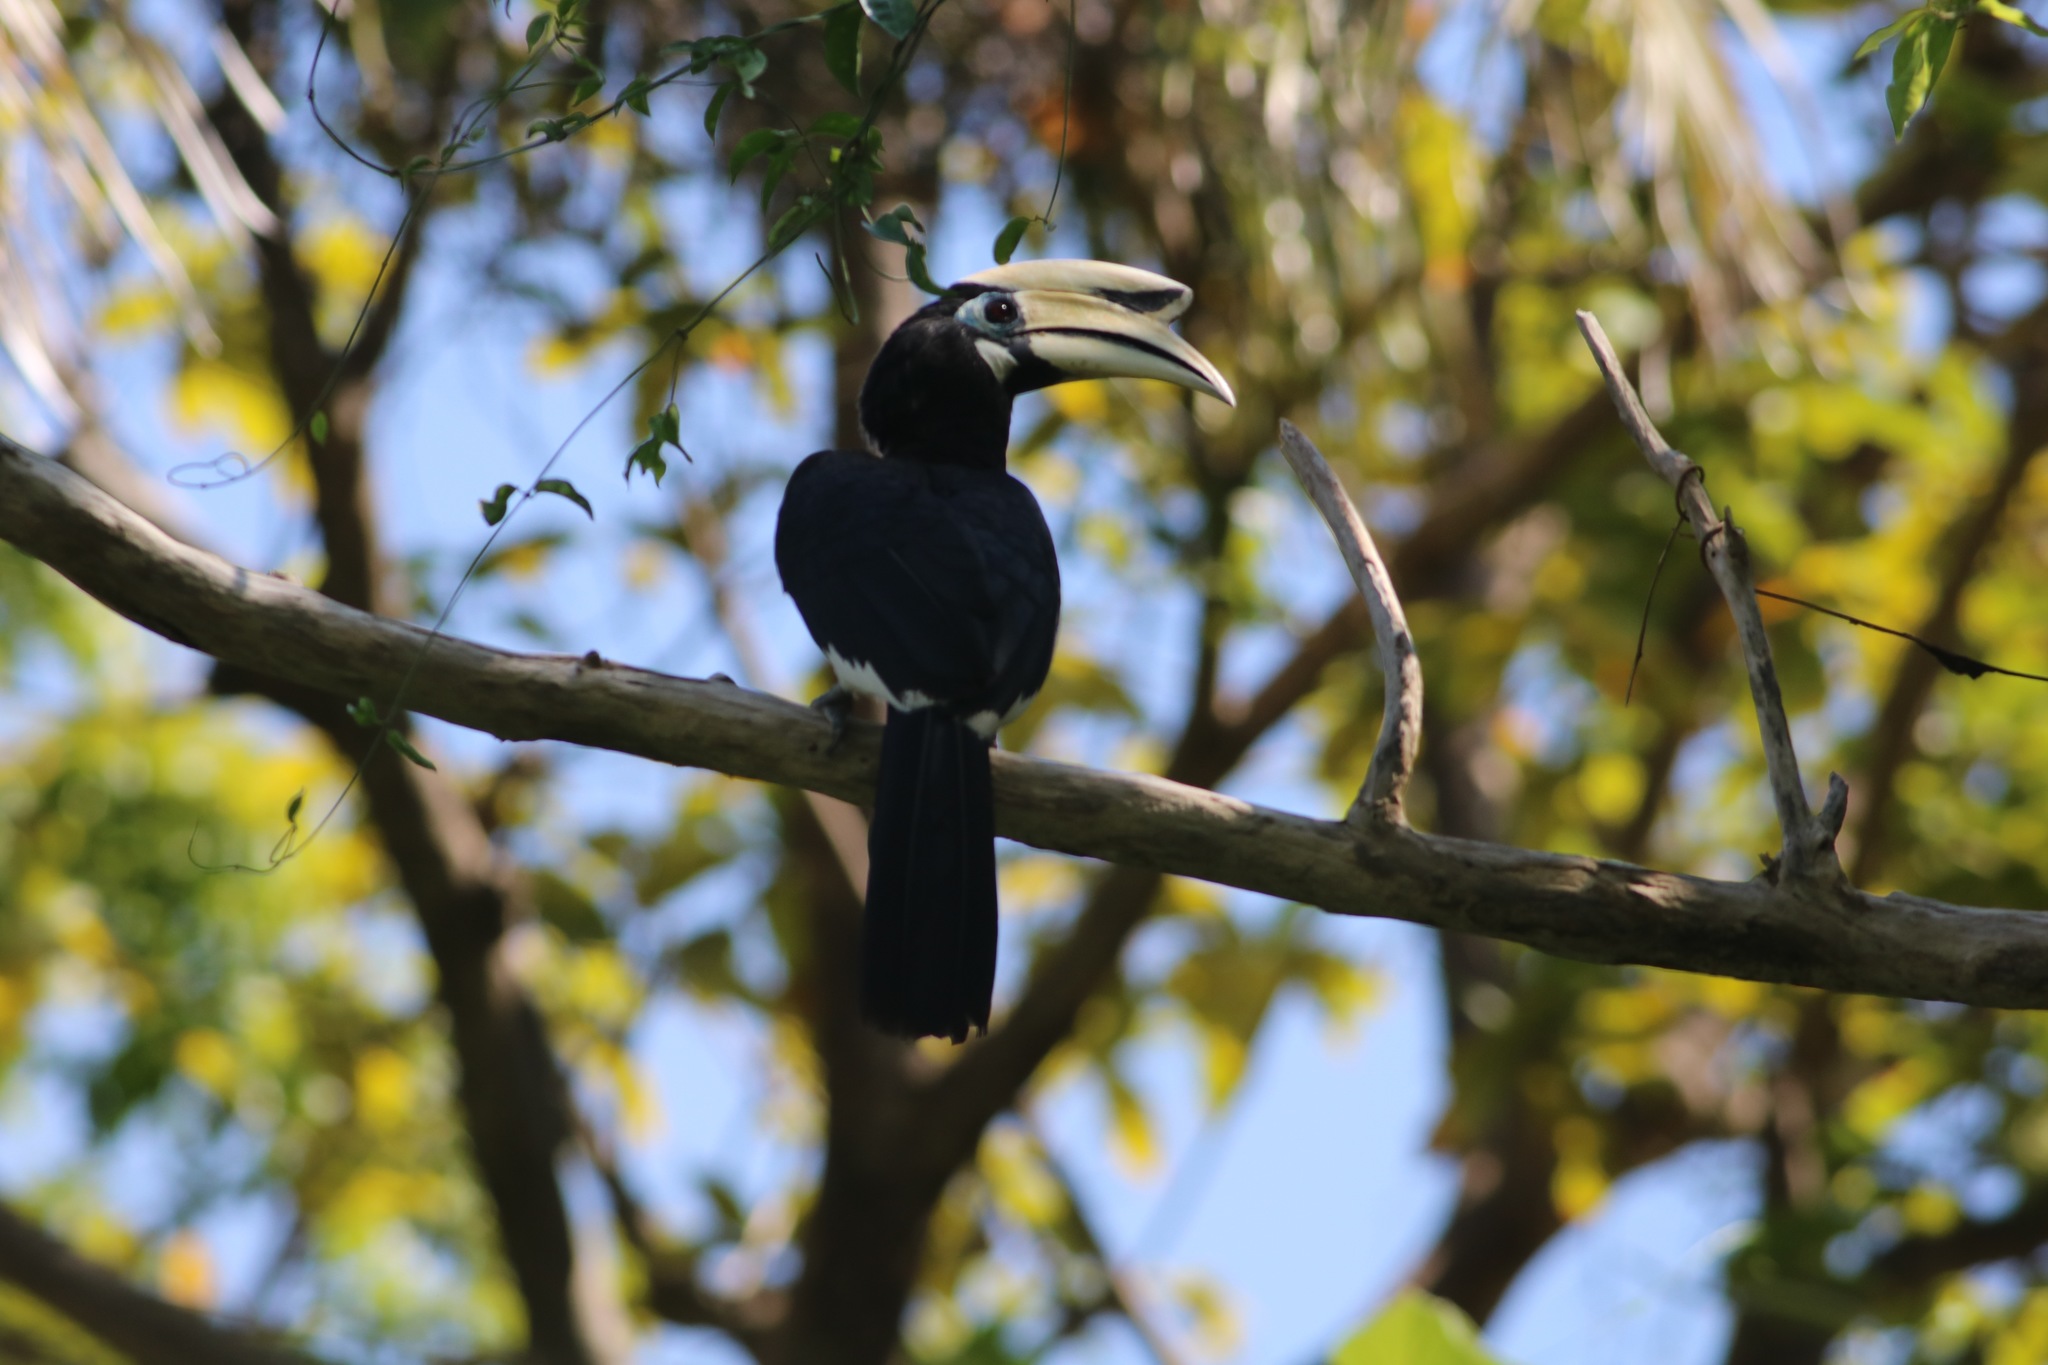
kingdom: Animalia
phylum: Chordata
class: Aves
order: Bucerotiformes
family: Bucerotidae
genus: Anthracoceros
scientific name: Anthracoceros albirostris
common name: Oriental pied-hornbill
